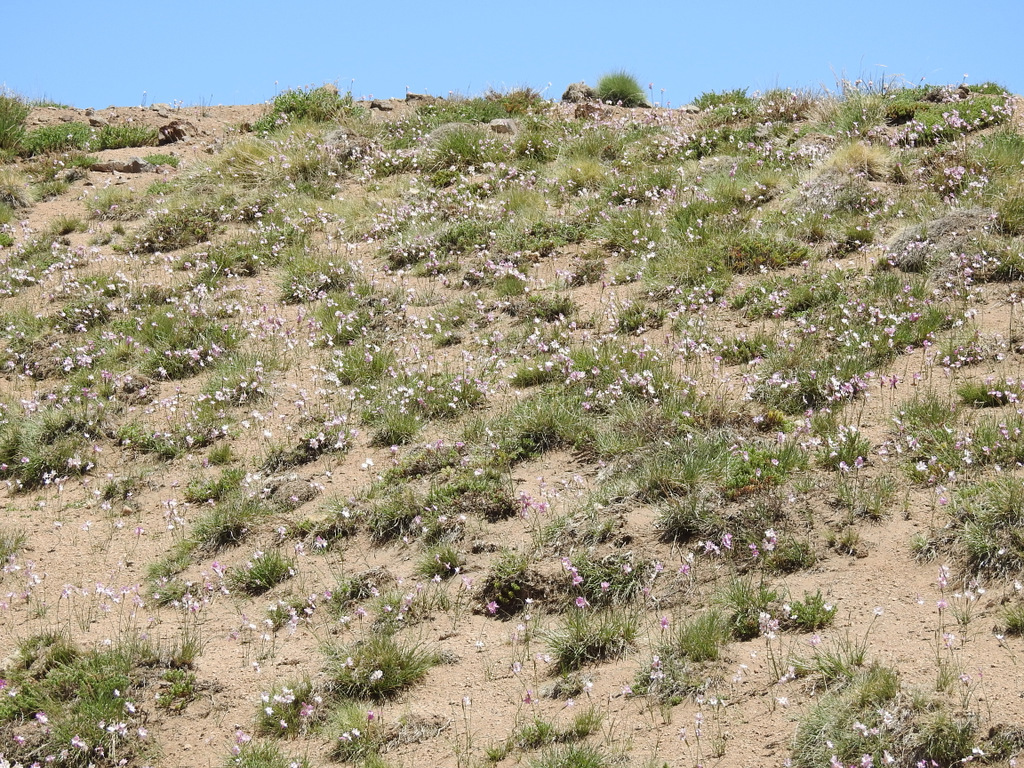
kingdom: Plantae
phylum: Tracheophyta
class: Liliopsida
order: Asparagales
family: Iridaceae
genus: Olsynium
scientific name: Olsynium junceum
